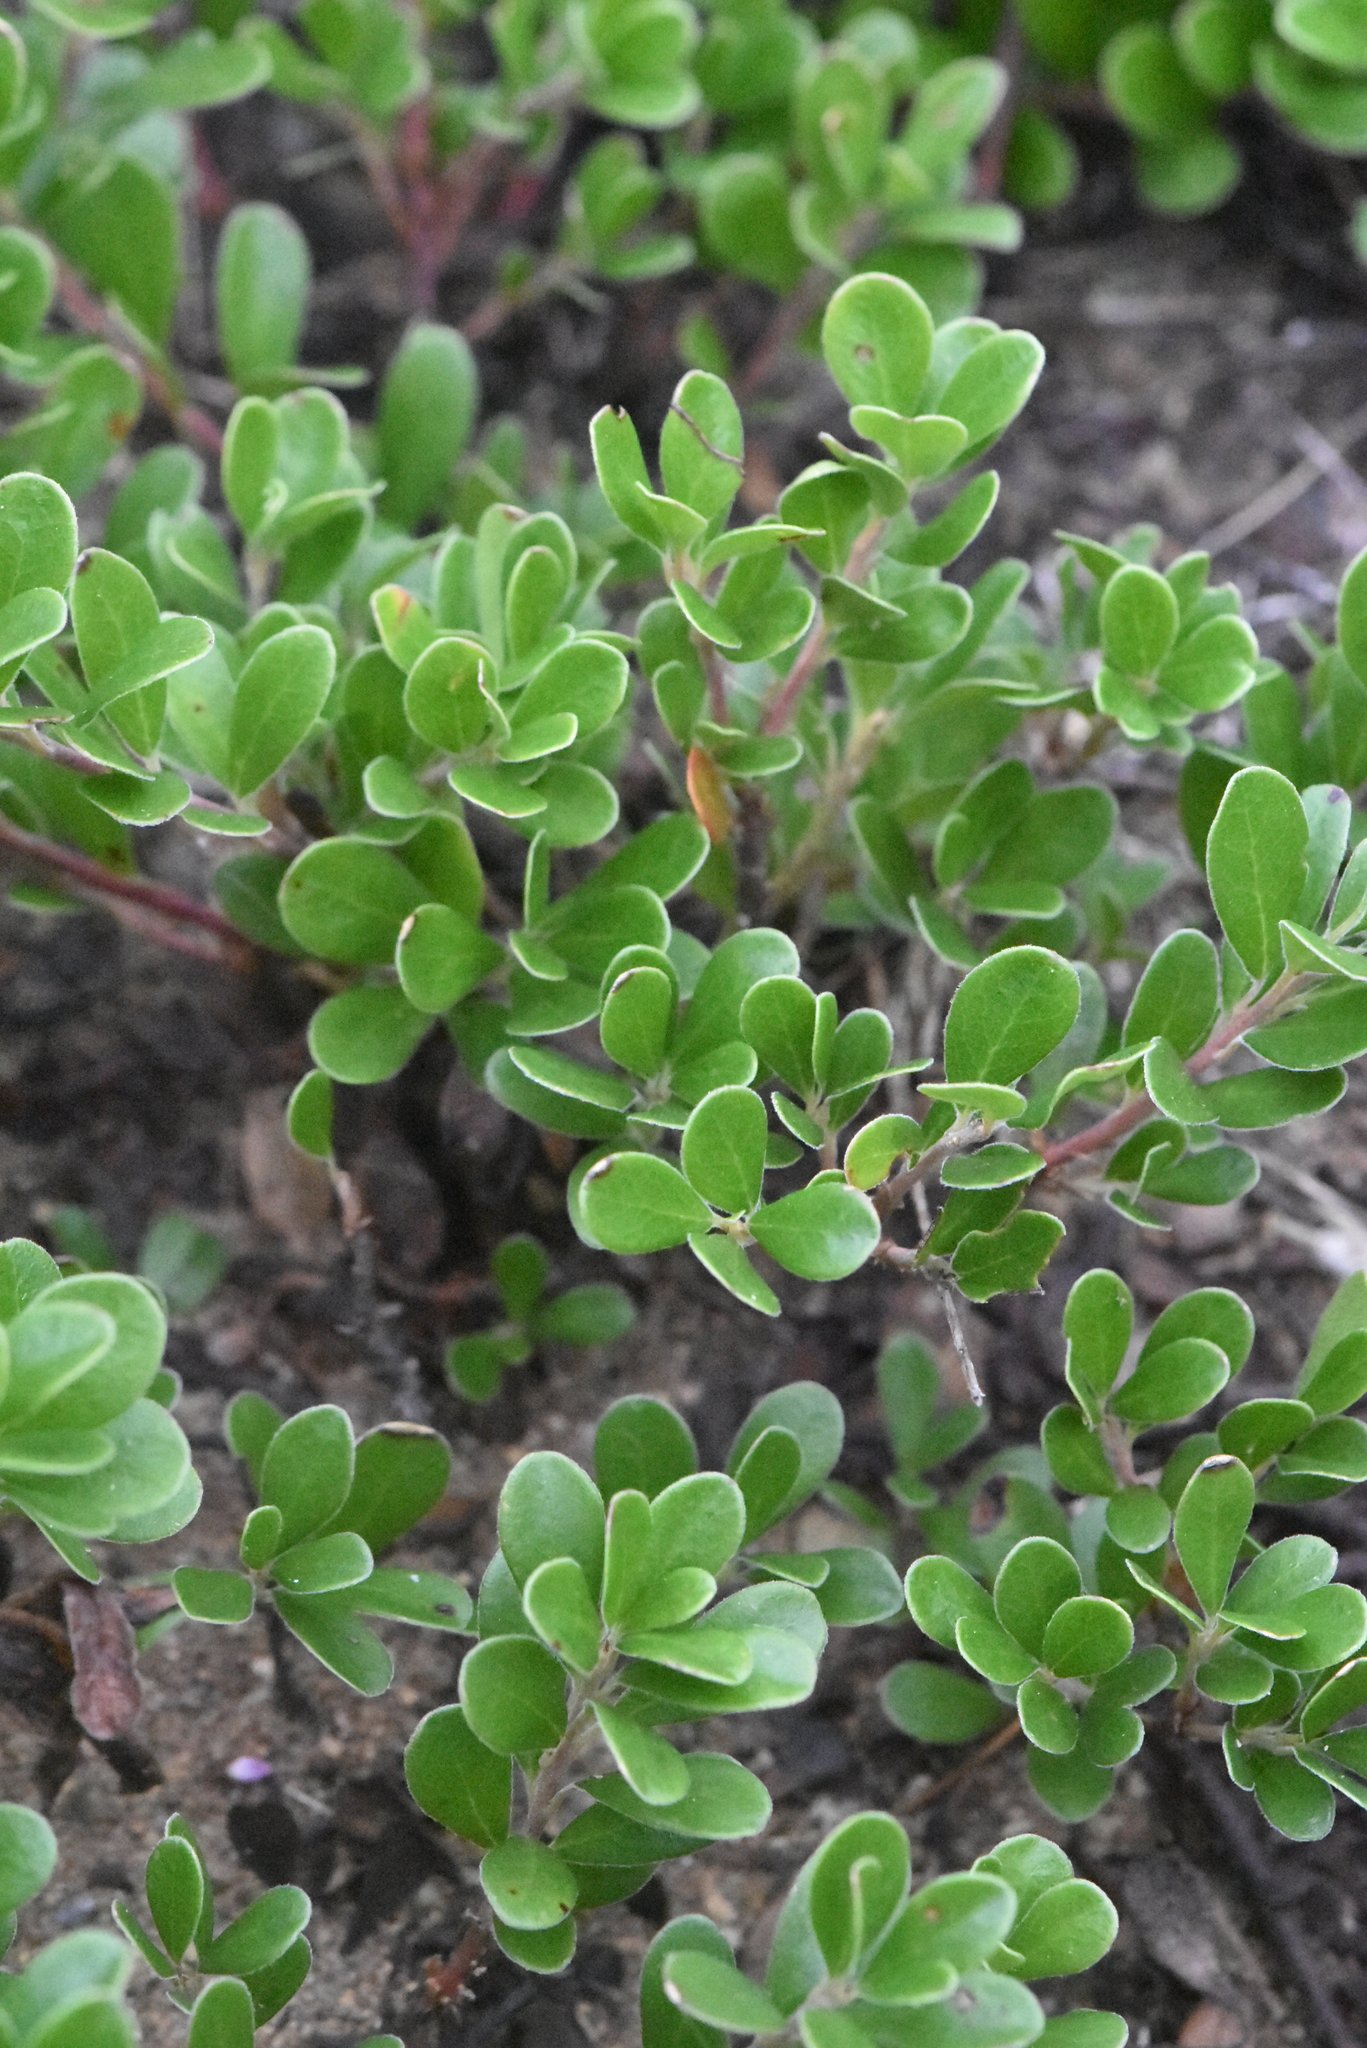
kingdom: Plantae
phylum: Tracheophyta
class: Magnoliopsida
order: Ericales
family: Ericaceae
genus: Arctostaphylos
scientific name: Arctostaphylos uva-ursi
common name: Bearberry
